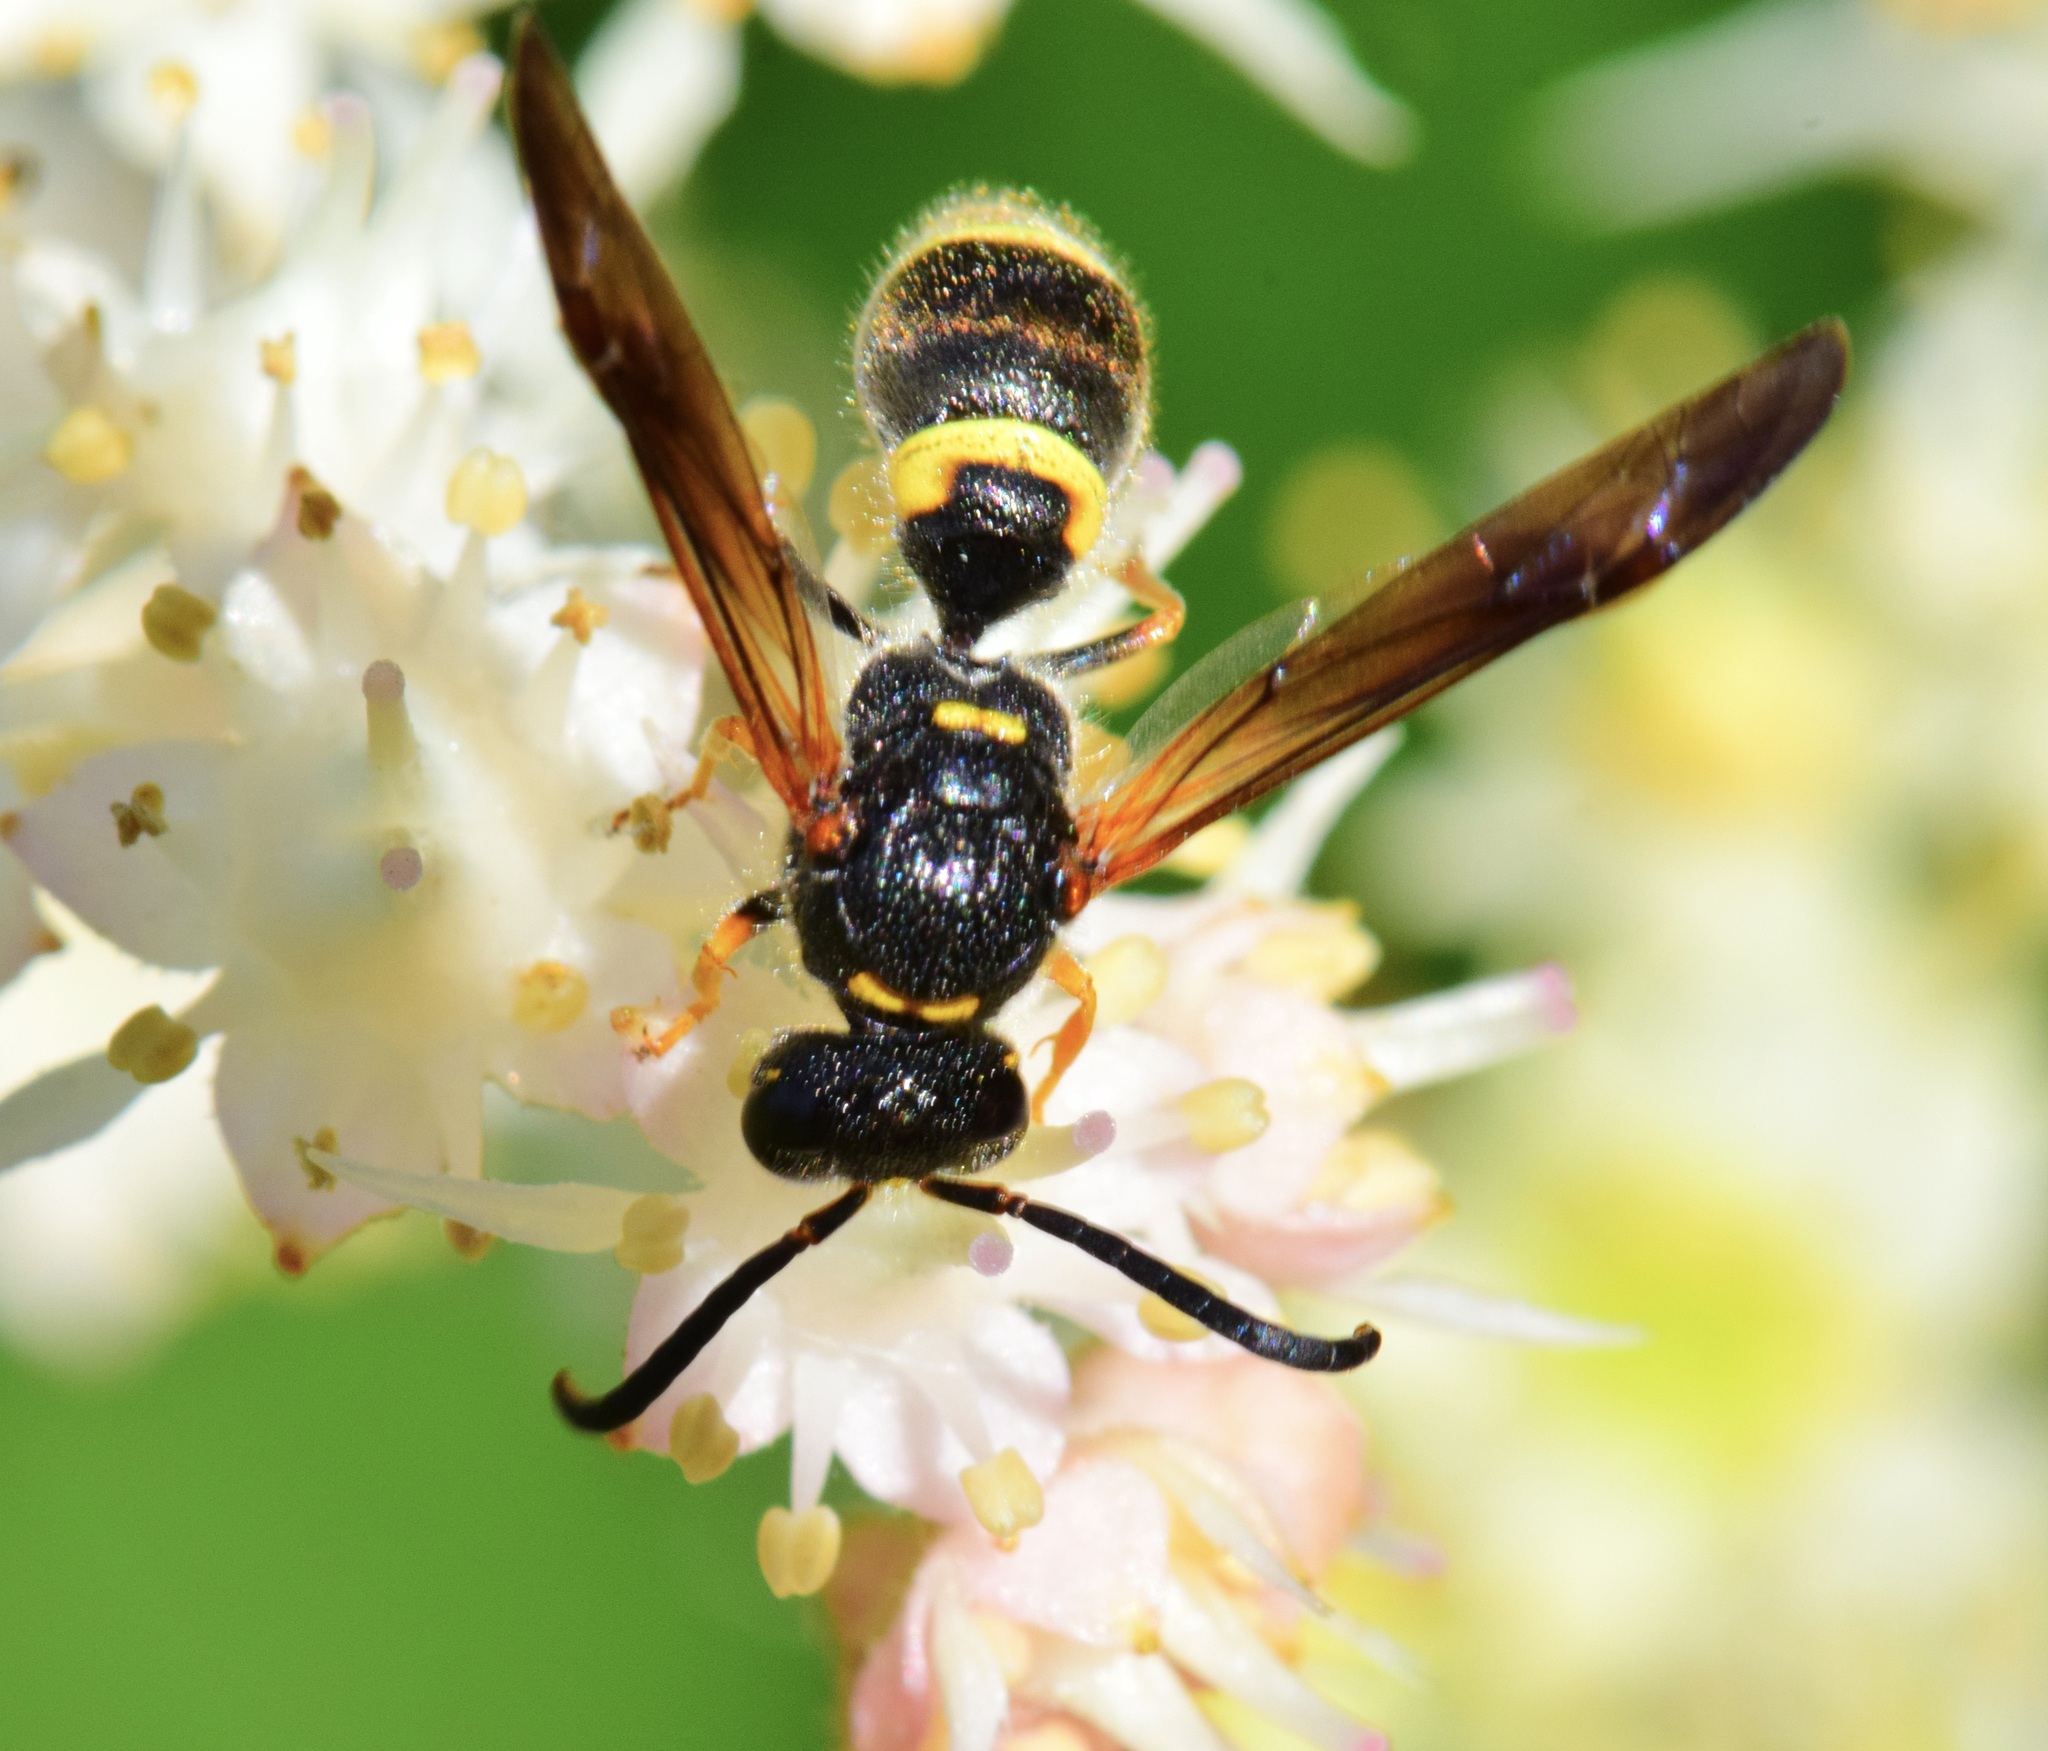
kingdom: Animalia
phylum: Arthropoda
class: Insecta
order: Hymenoptera
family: Vespidae
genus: Ancistrocerus
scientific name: Ancistrocerus unifasciatus
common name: One-banded mason wasp
